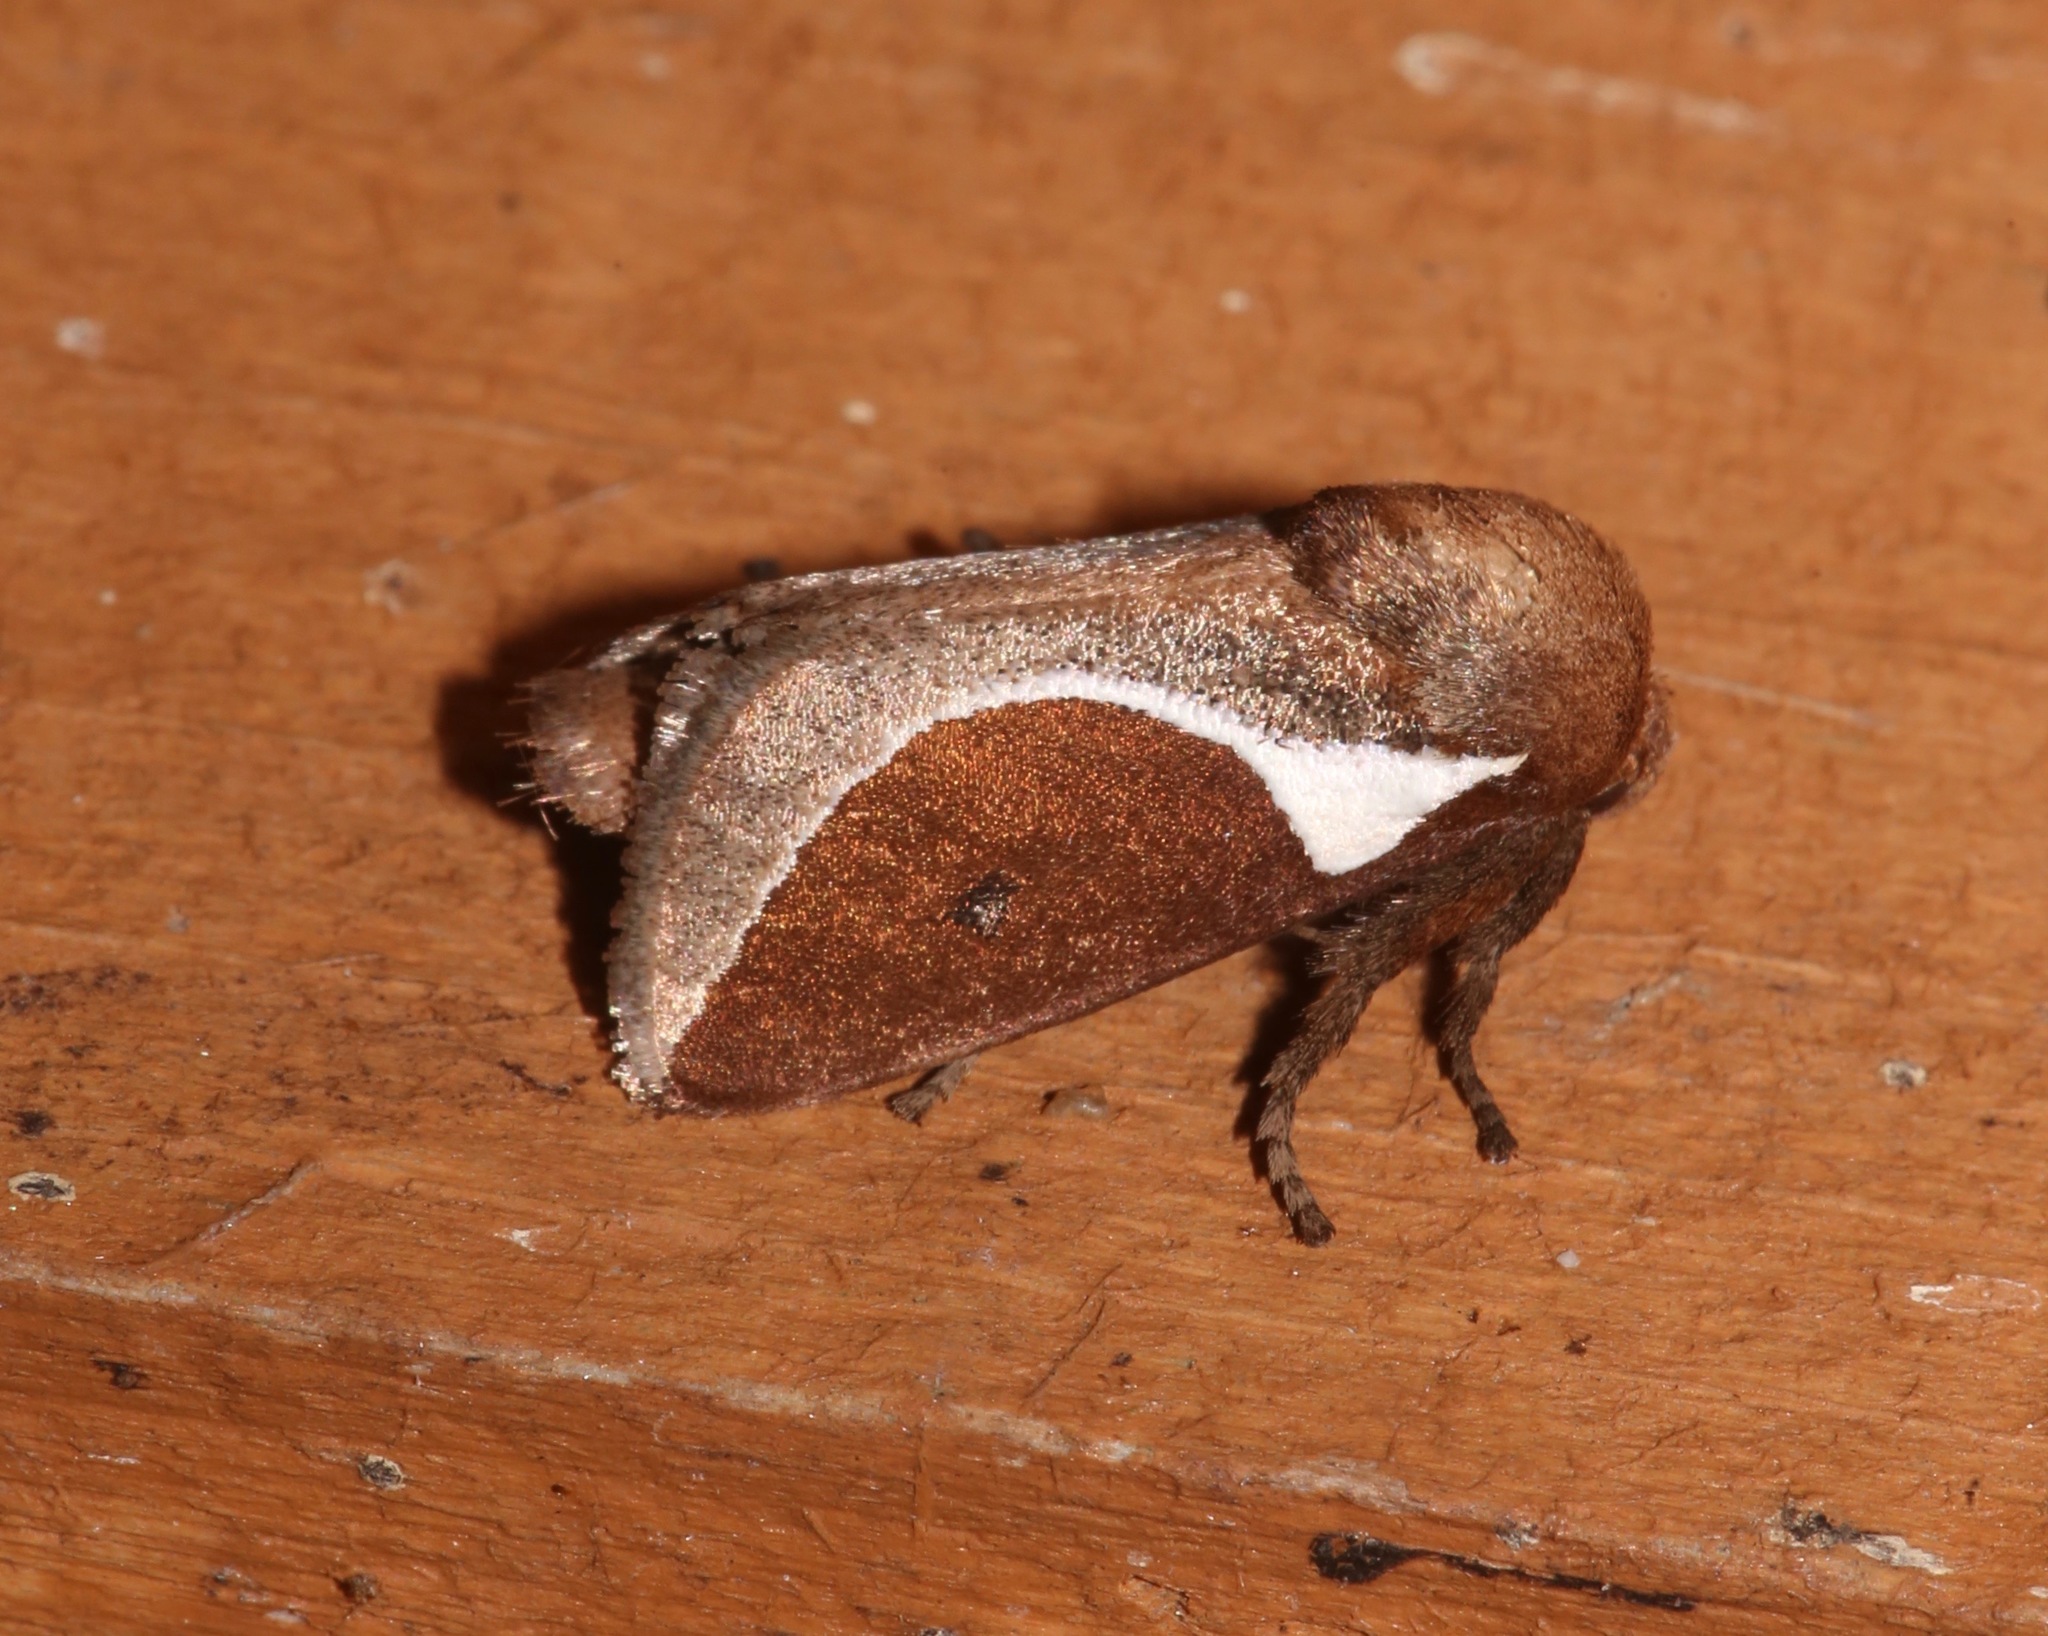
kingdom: Animalia
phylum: Arthropoda
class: Insecta
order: Lepidoptera
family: Limacodidae
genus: Prolimacodes
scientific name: Prolimacodes badia
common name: Skiff moth
